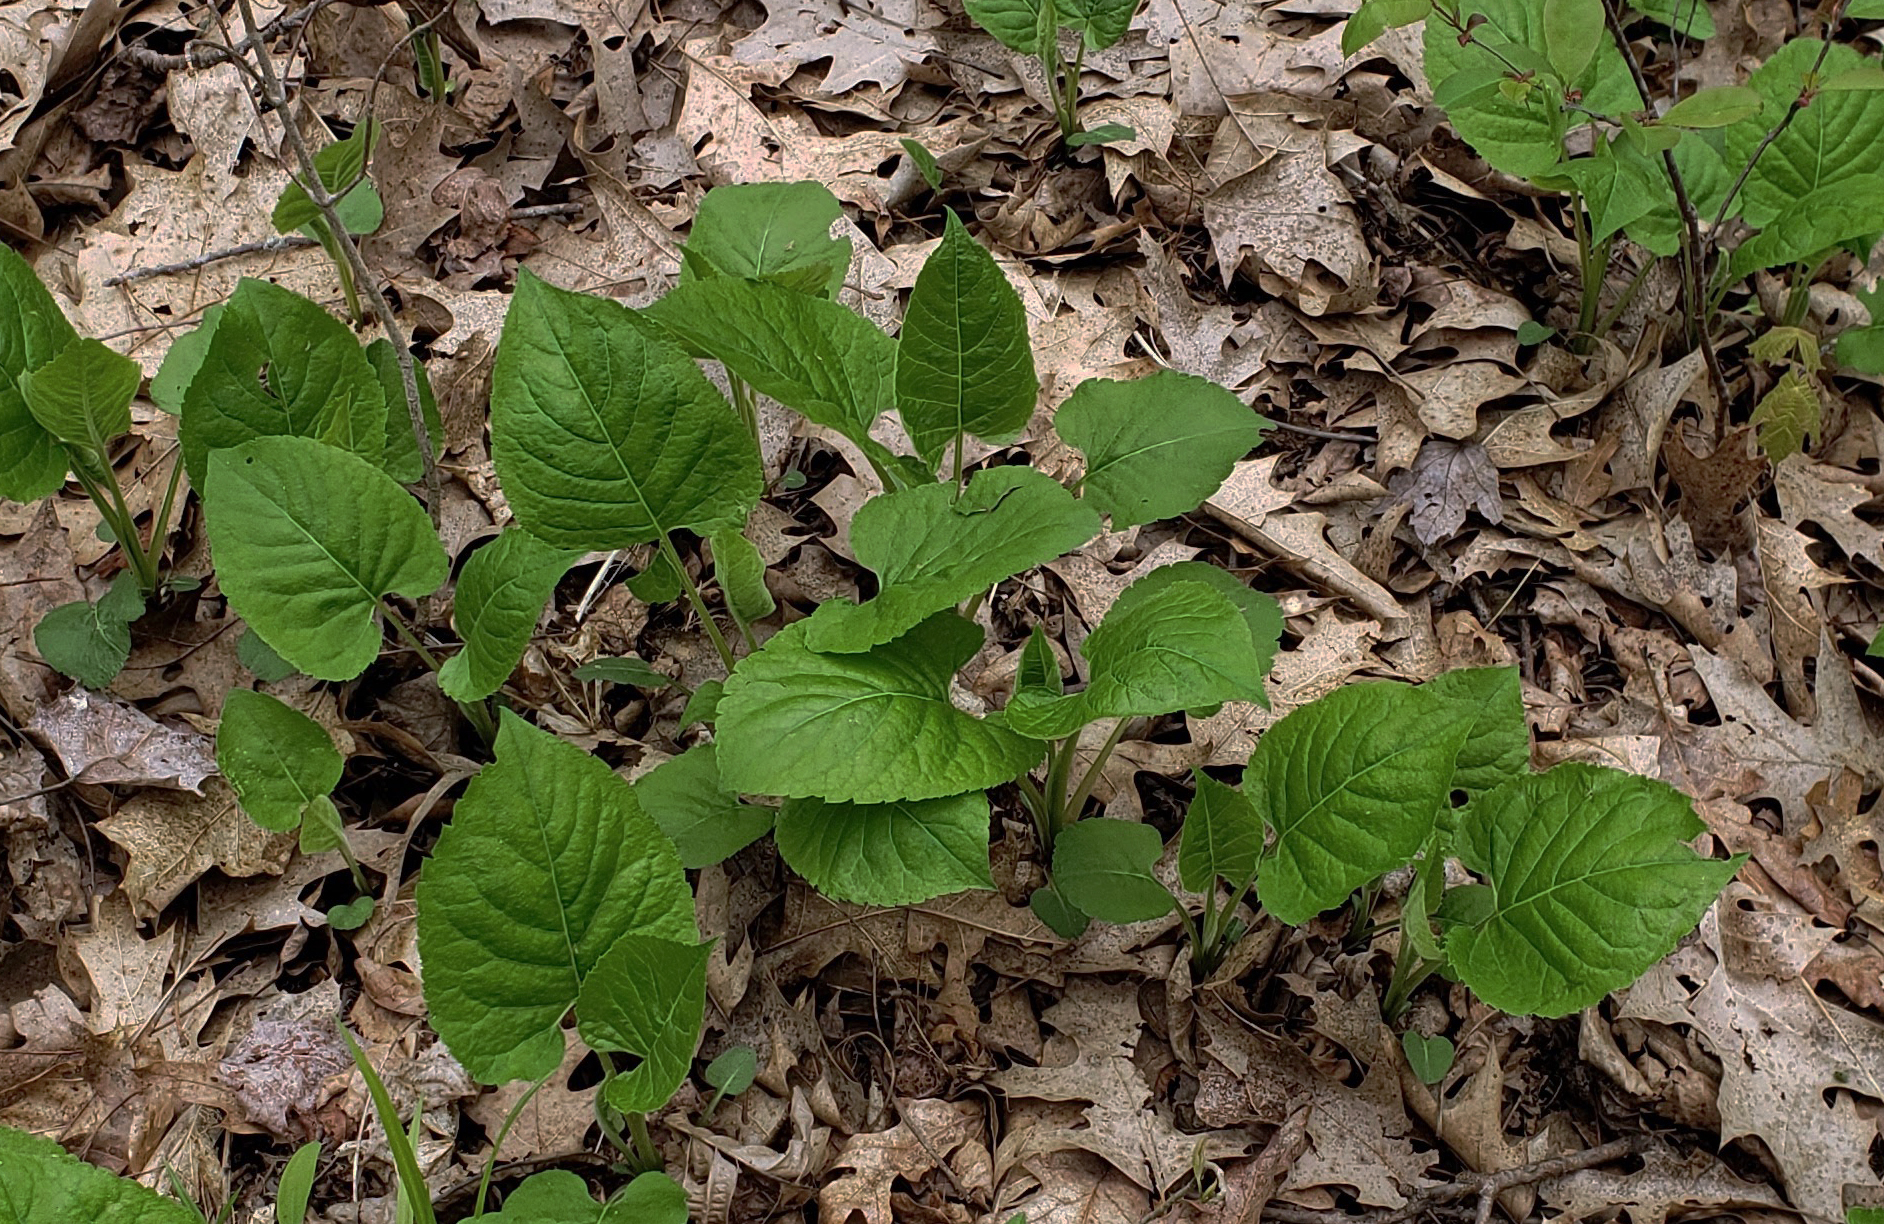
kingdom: Plantae
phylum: Tracheophyta
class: Magnoliopsida
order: Asterales
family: Asteraceae
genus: Eurybia
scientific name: Eurybia macrophylla
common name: Big-leaved aster
